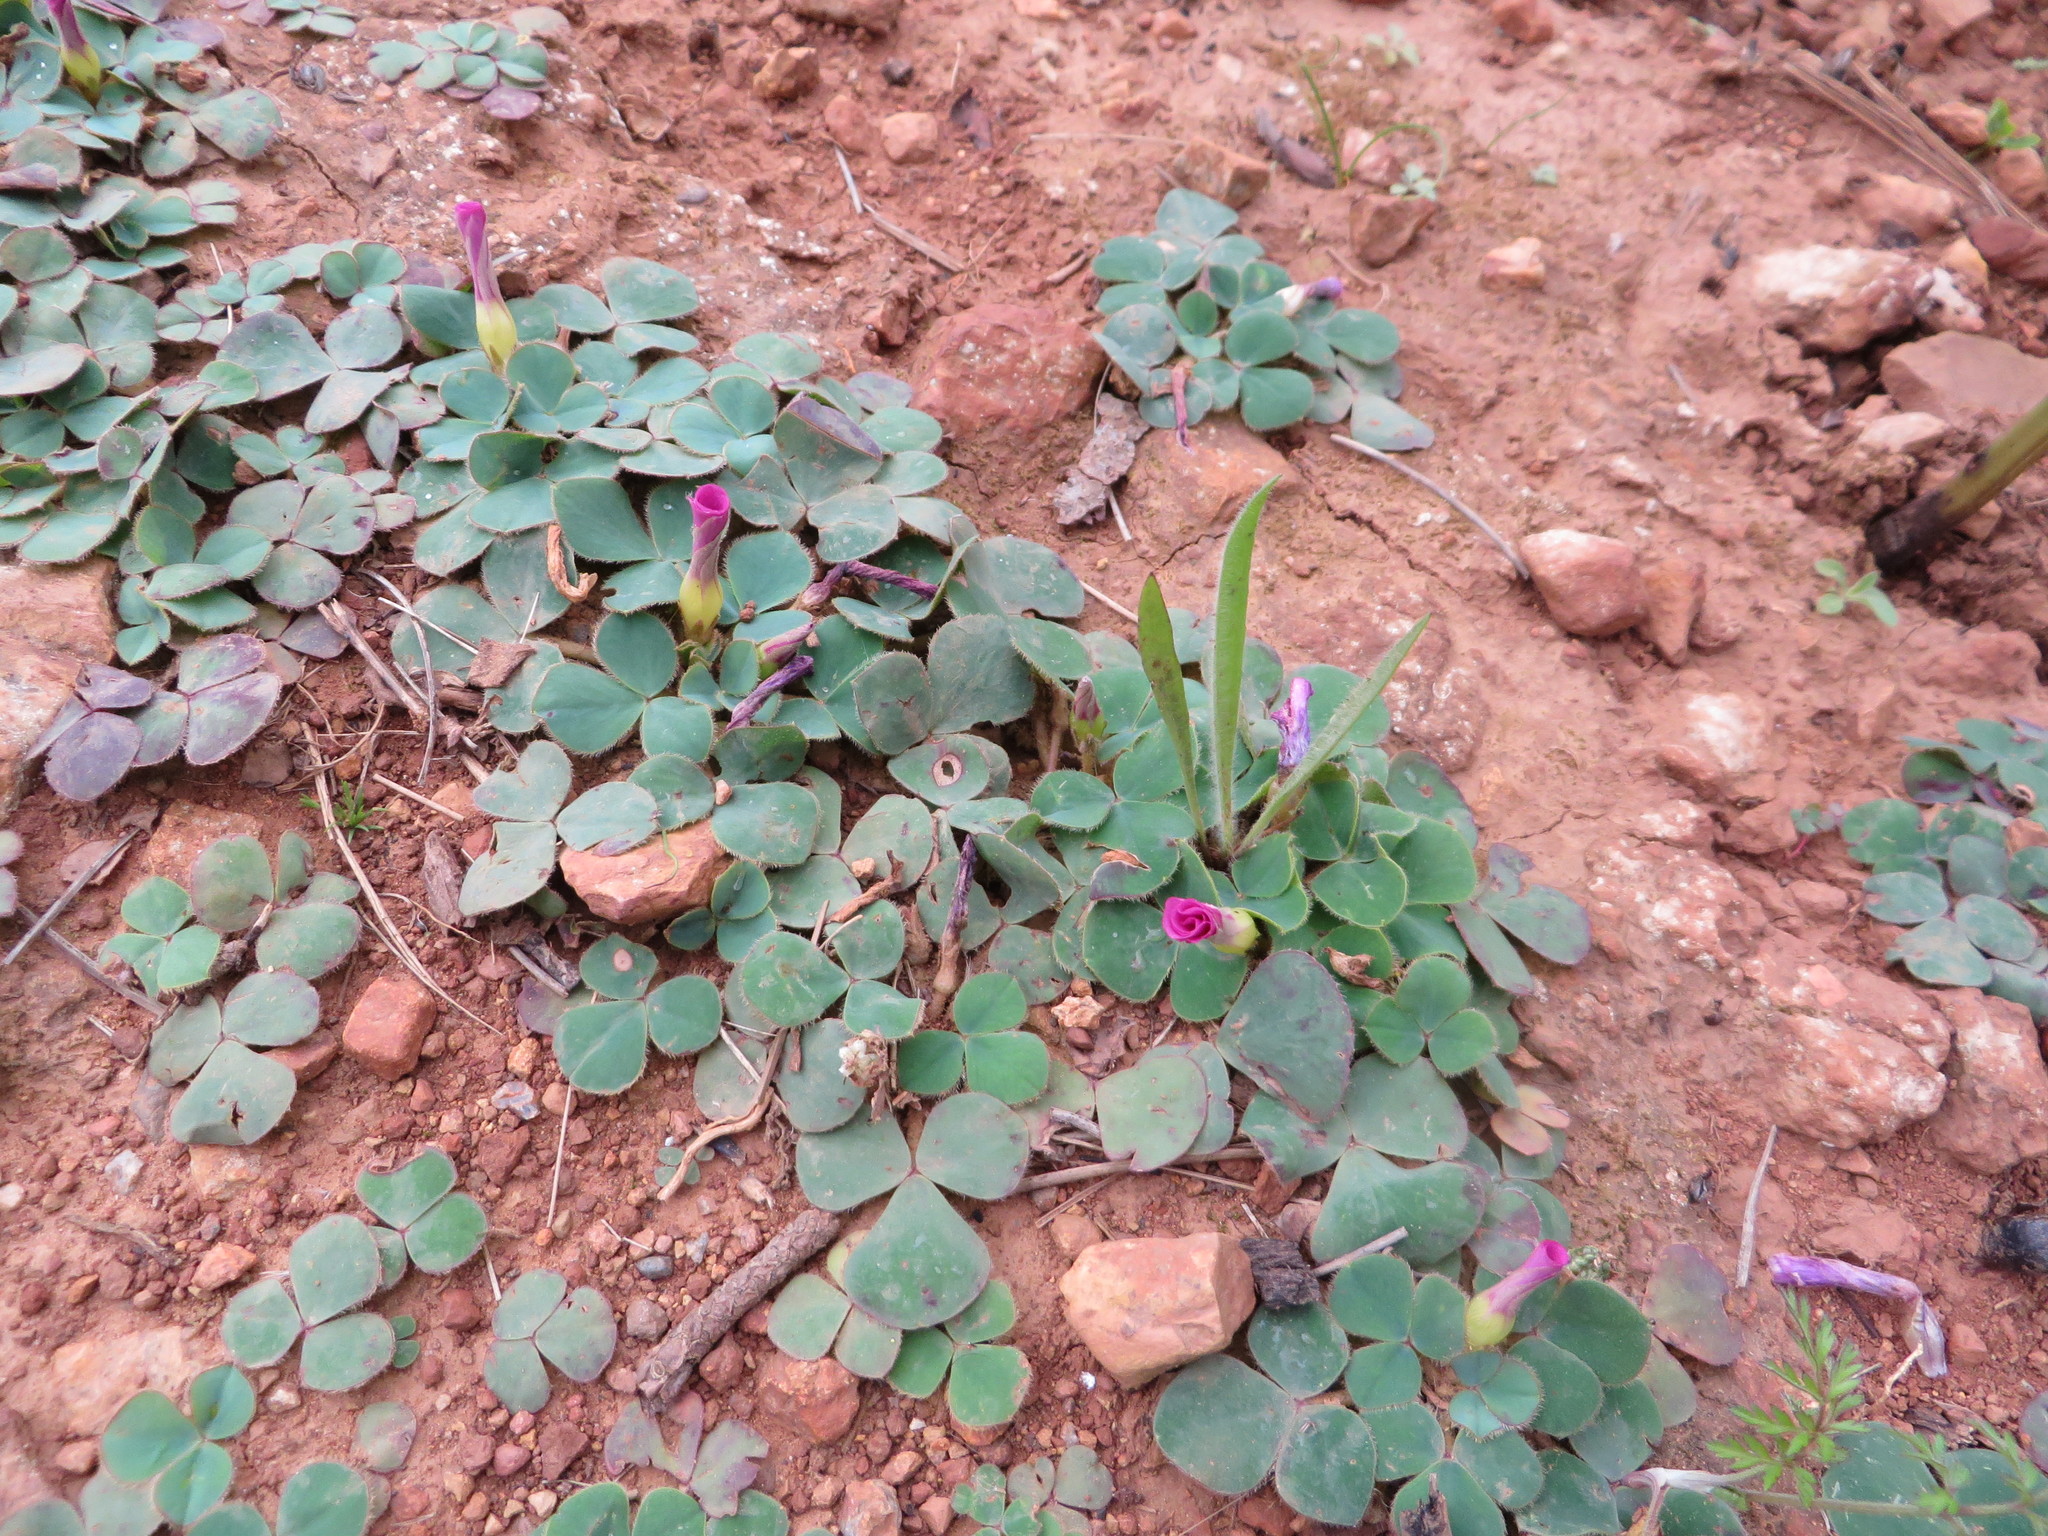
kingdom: Plantae
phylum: Tracheophyta
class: Magnoliopsida
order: Oxalidales
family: Oxalidaceae
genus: Oxalis
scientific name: Oxalis purpurea
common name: Purple woodsorrel
